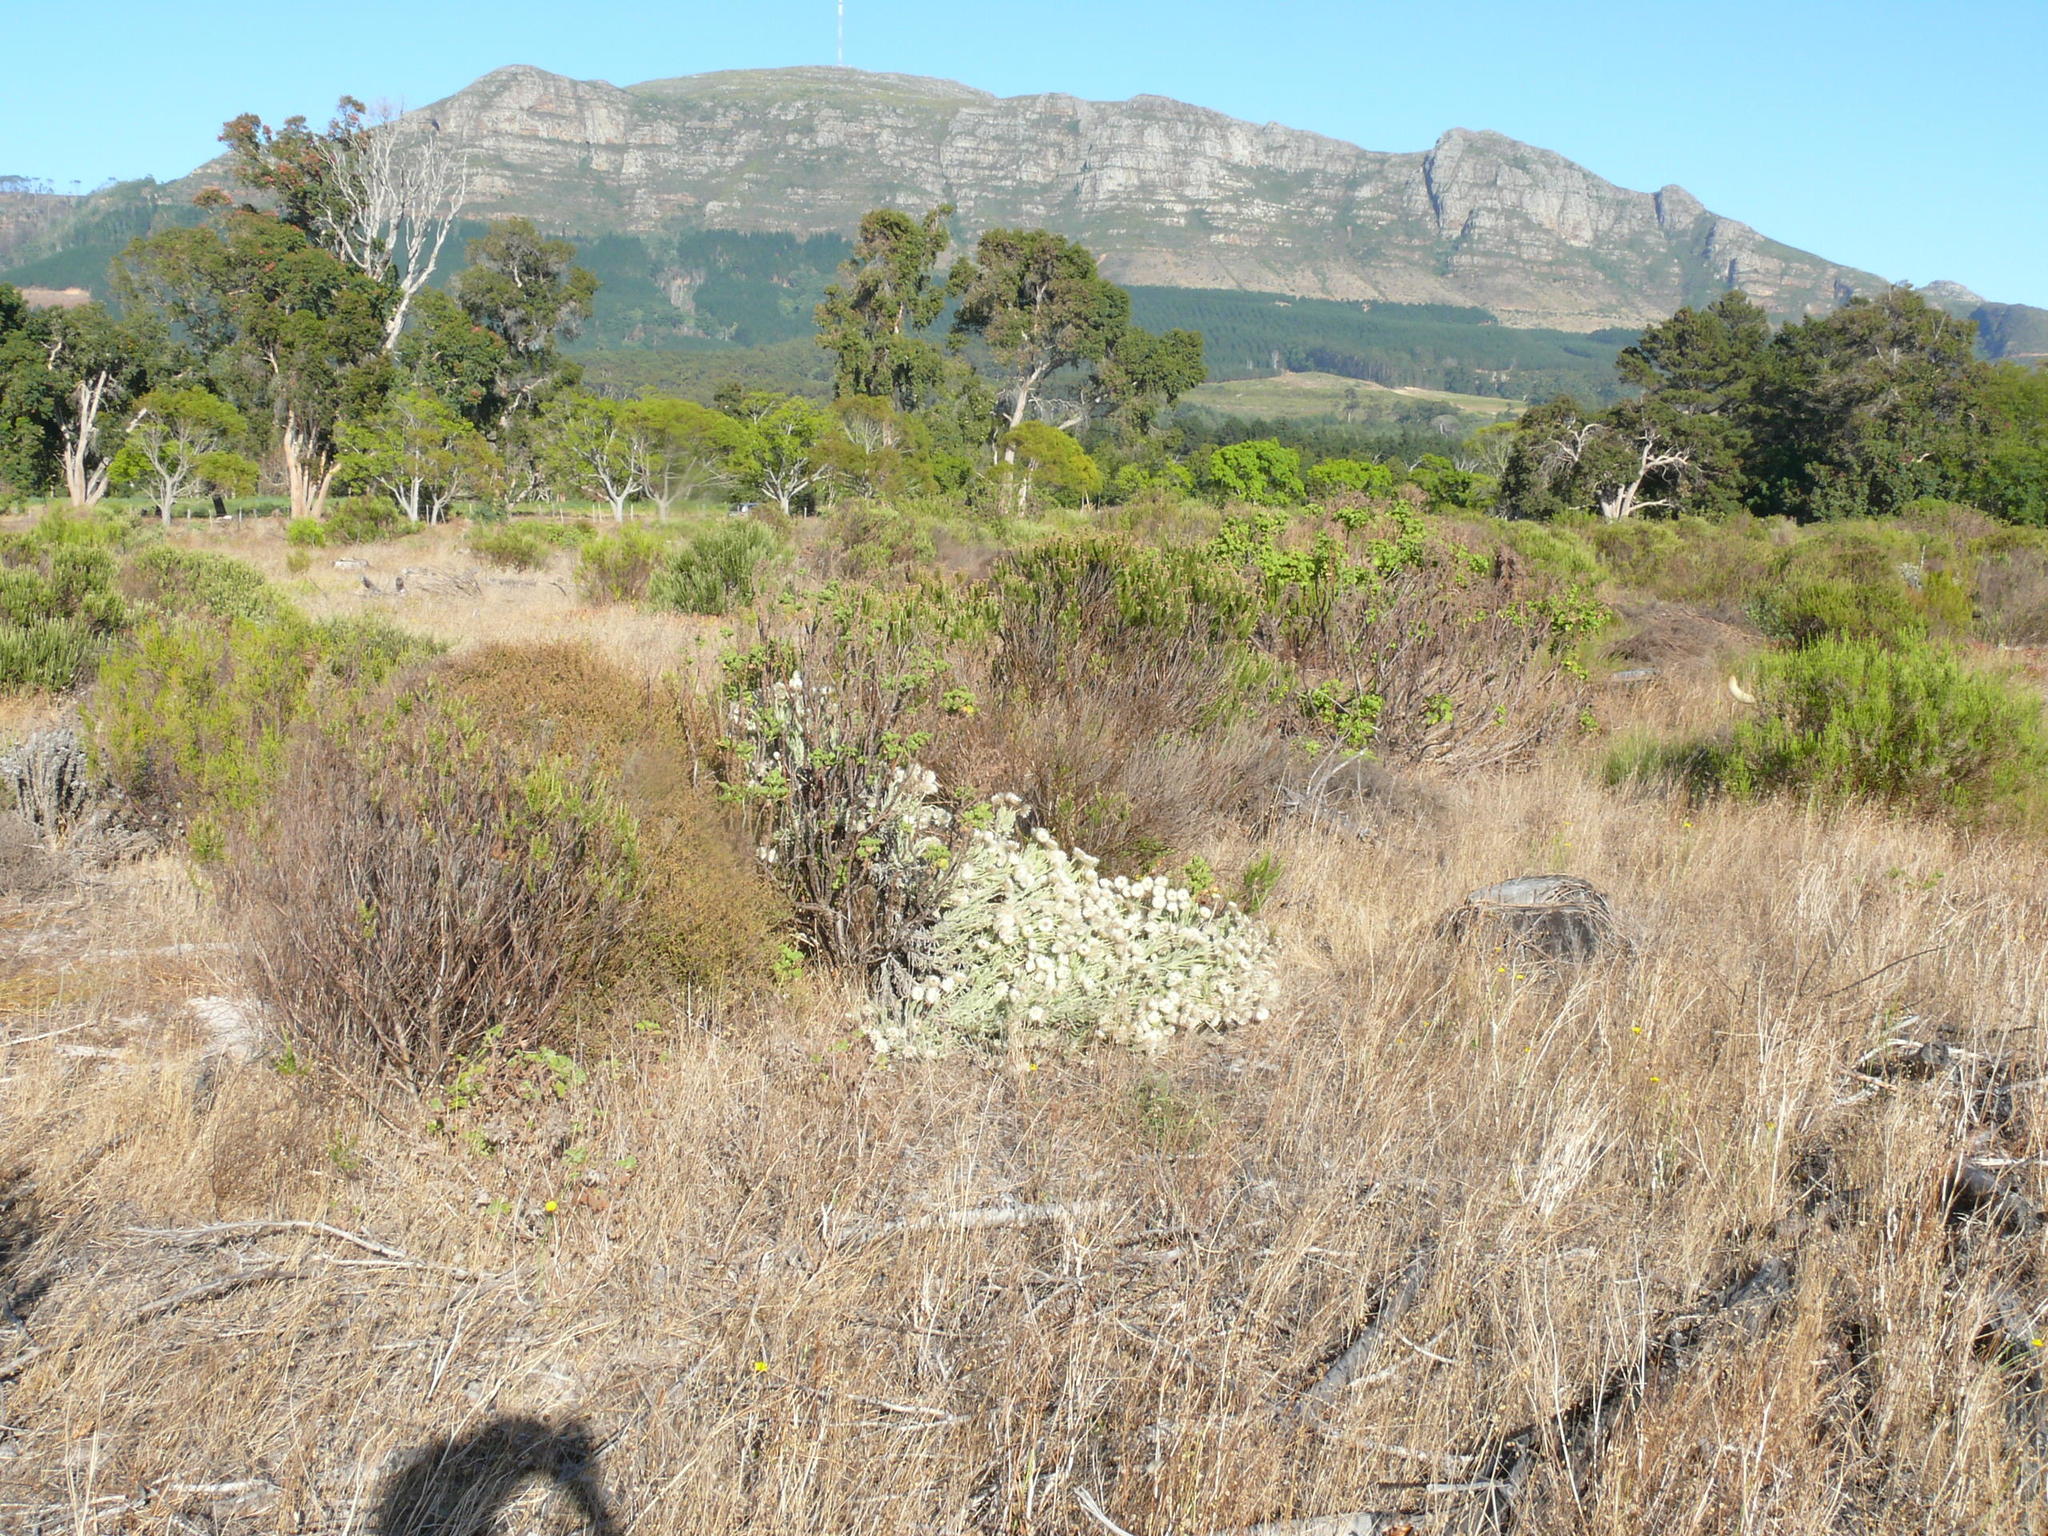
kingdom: Plantae
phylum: Tracheophyta
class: Magnoliopsida
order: Asterales
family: Asteraceae
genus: Syncarpha
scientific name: Syncarpha vestita
